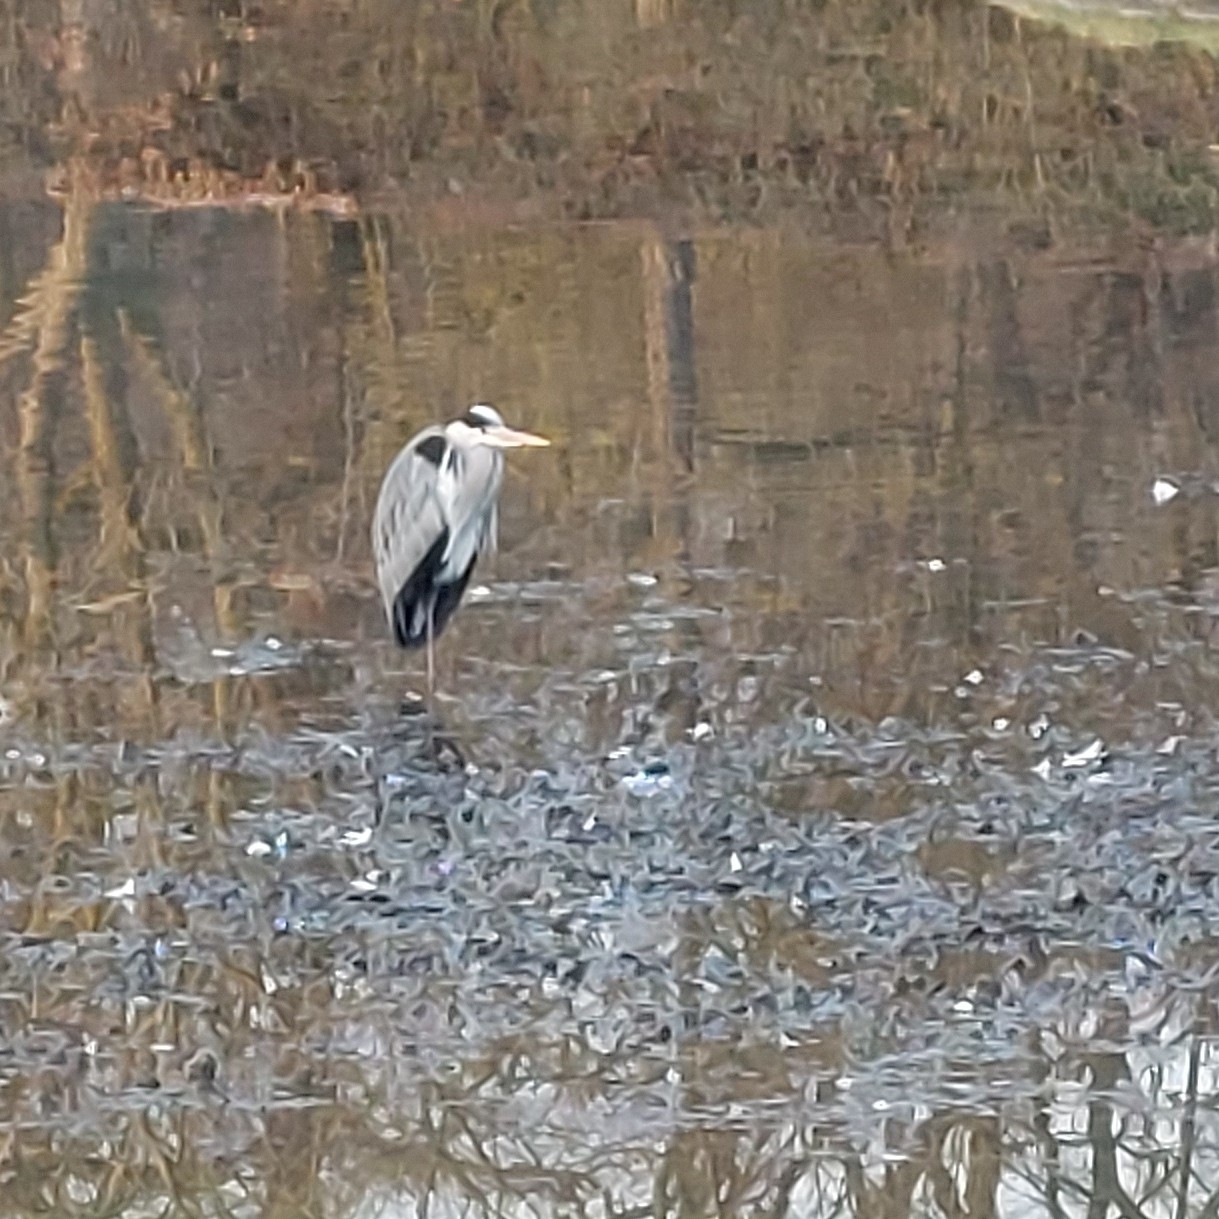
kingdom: Animalia
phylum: Chordata
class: Aves
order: Pelecaniformes
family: Ardeidae
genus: Ardea
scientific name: Ardea cinerea
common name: Grey heron
